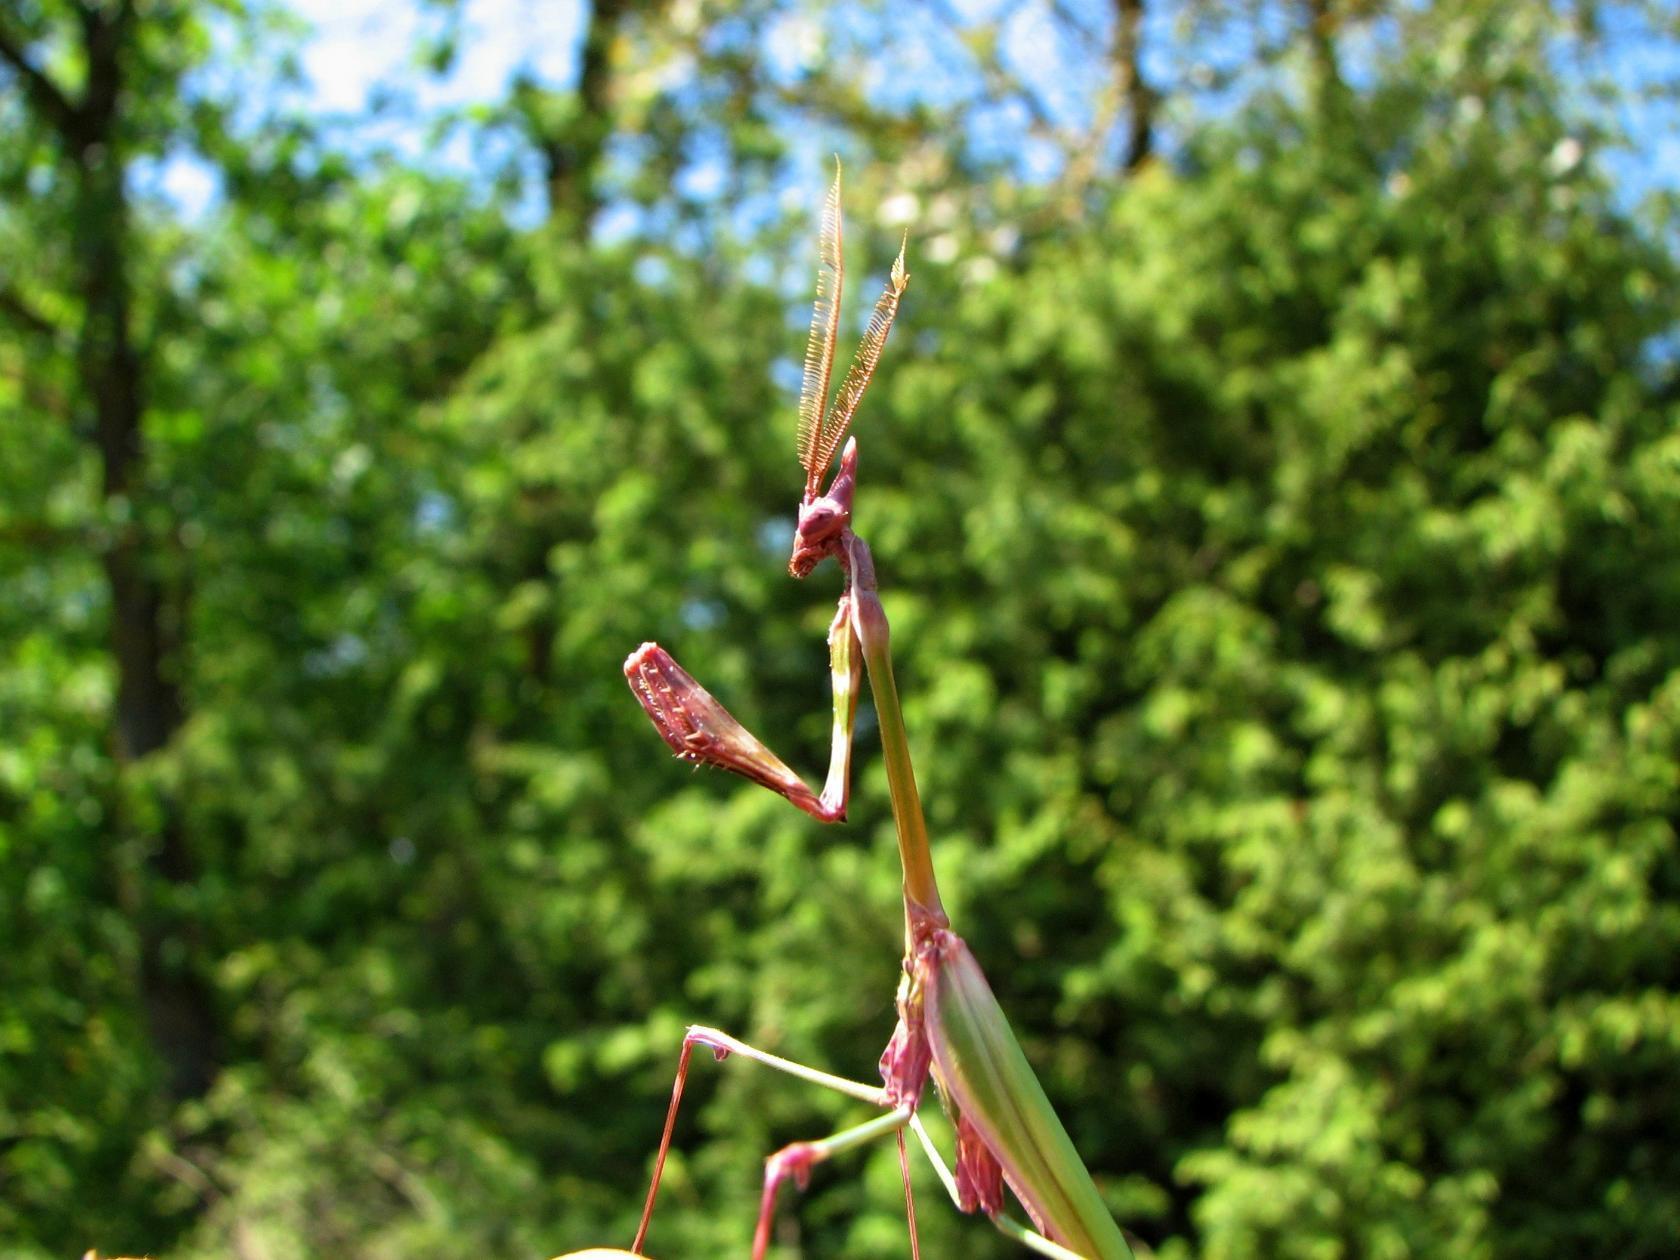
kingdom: Animalia
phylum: Arthropoda
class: Insecta
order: Mantodea
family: Empusidae
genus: Empusa
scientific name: Empusa fasciata
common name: Devil's mare
